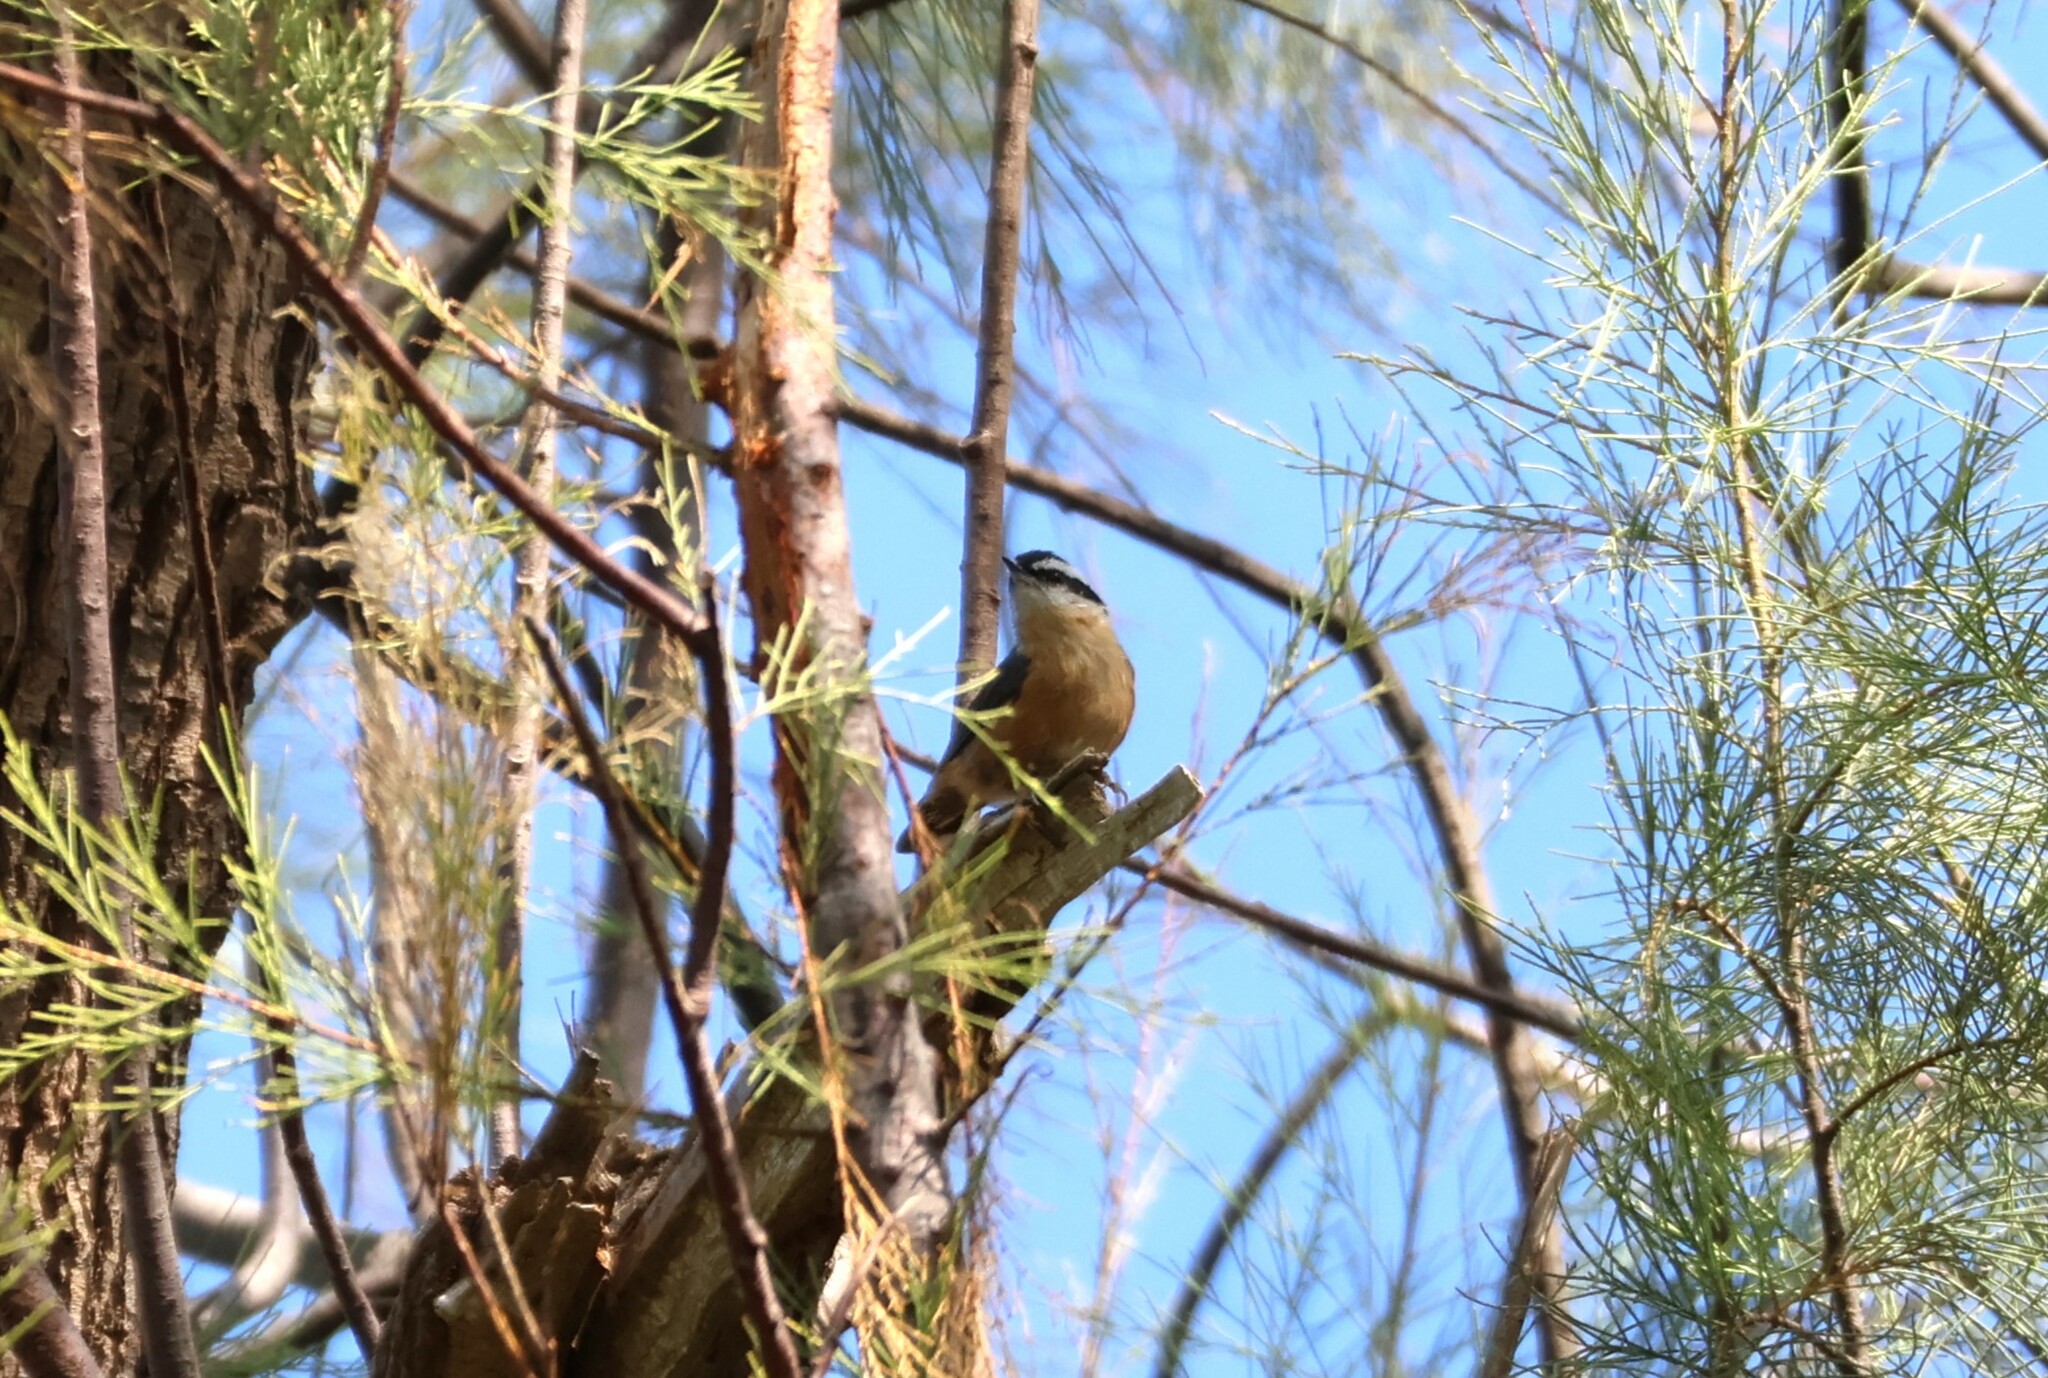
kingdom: Animalia
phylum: Chordata
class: Aves
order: Passeriformes
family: Sittidae
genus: Sitta
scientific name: Sitta canadensis
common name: Red-breasted nuthatch
